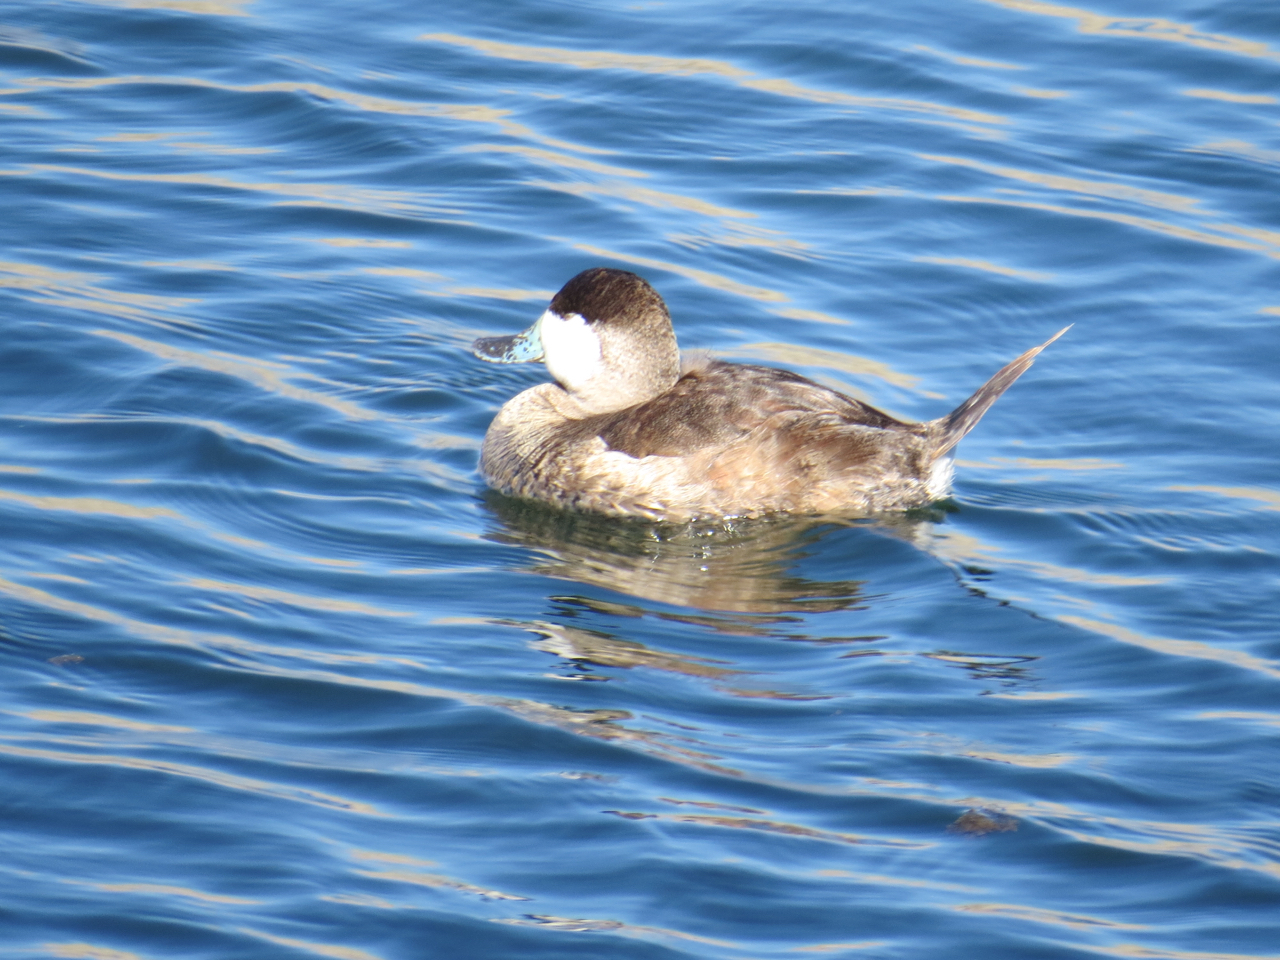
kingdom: Animalia
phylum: Chordata
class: Aves
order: Anseriformes
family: Anatidae
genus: Oxyura
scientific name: Oxyura jamaicensis
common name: Ruddy duck
